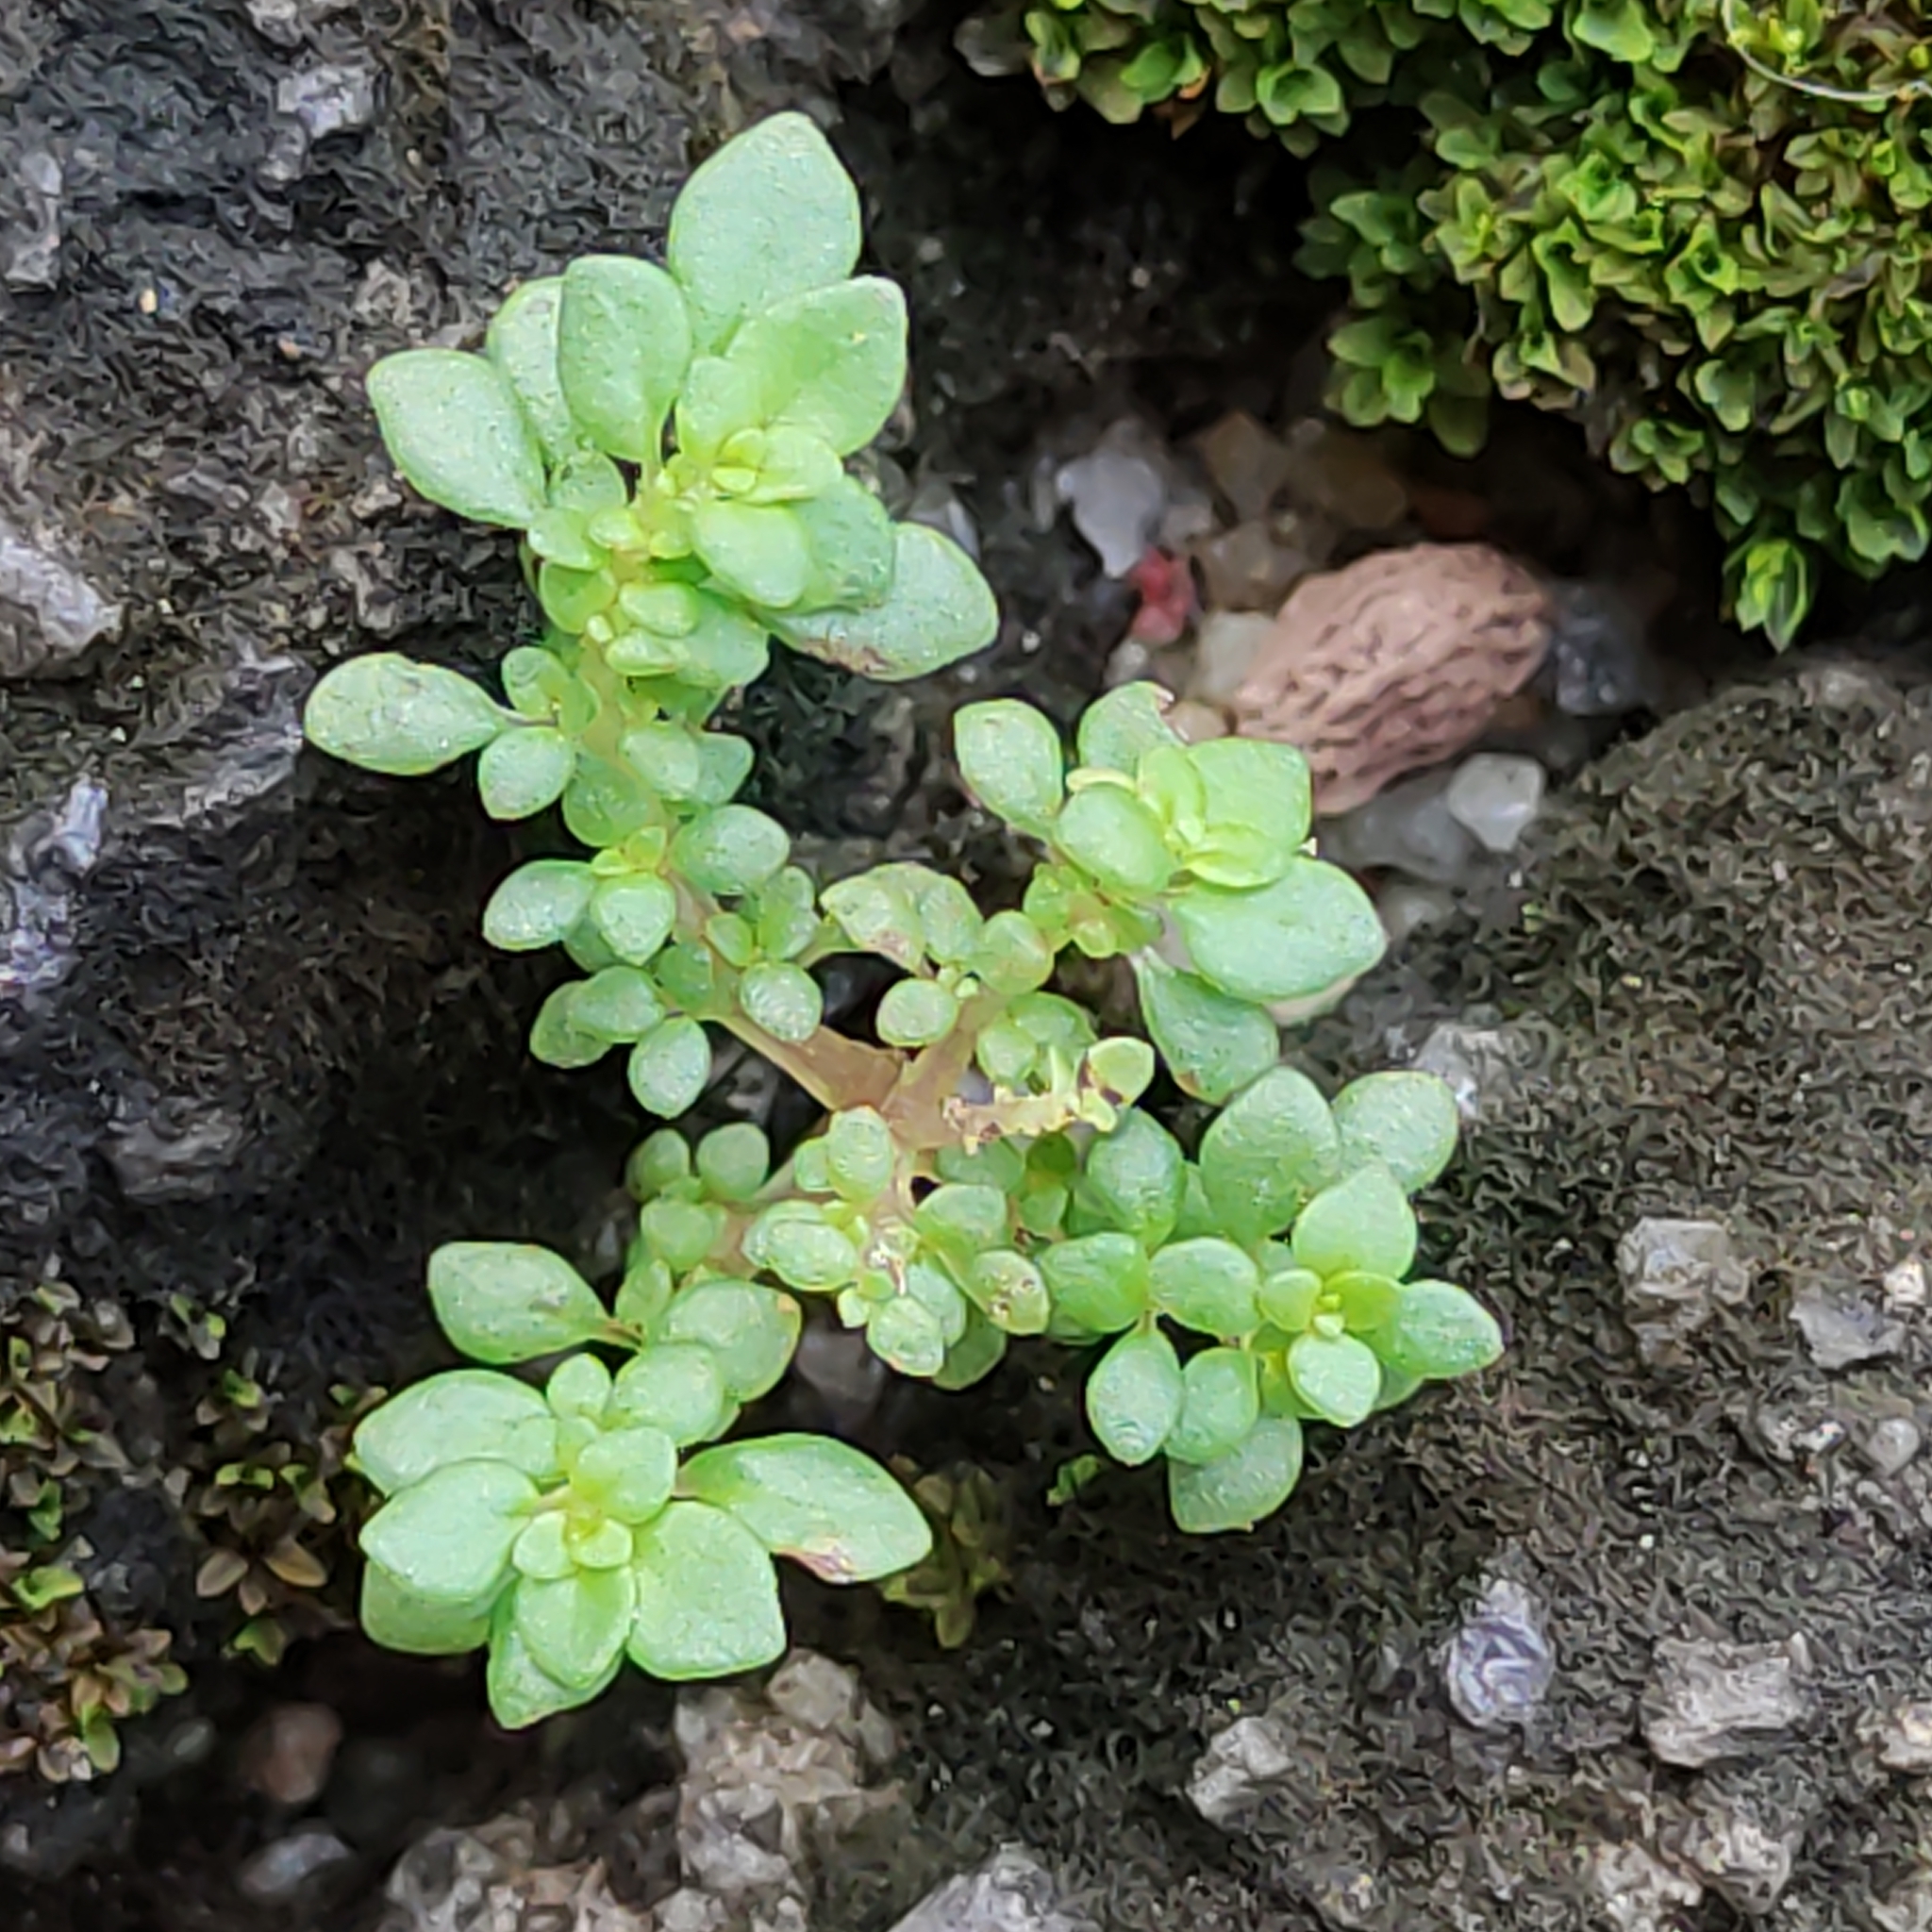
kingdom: Plantae
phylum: Tracheophyta
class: Magnoliopsida
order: Rosales
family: Urticaceae
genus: Pilea
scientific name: Pilea microphylla
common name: Artillery-plant
